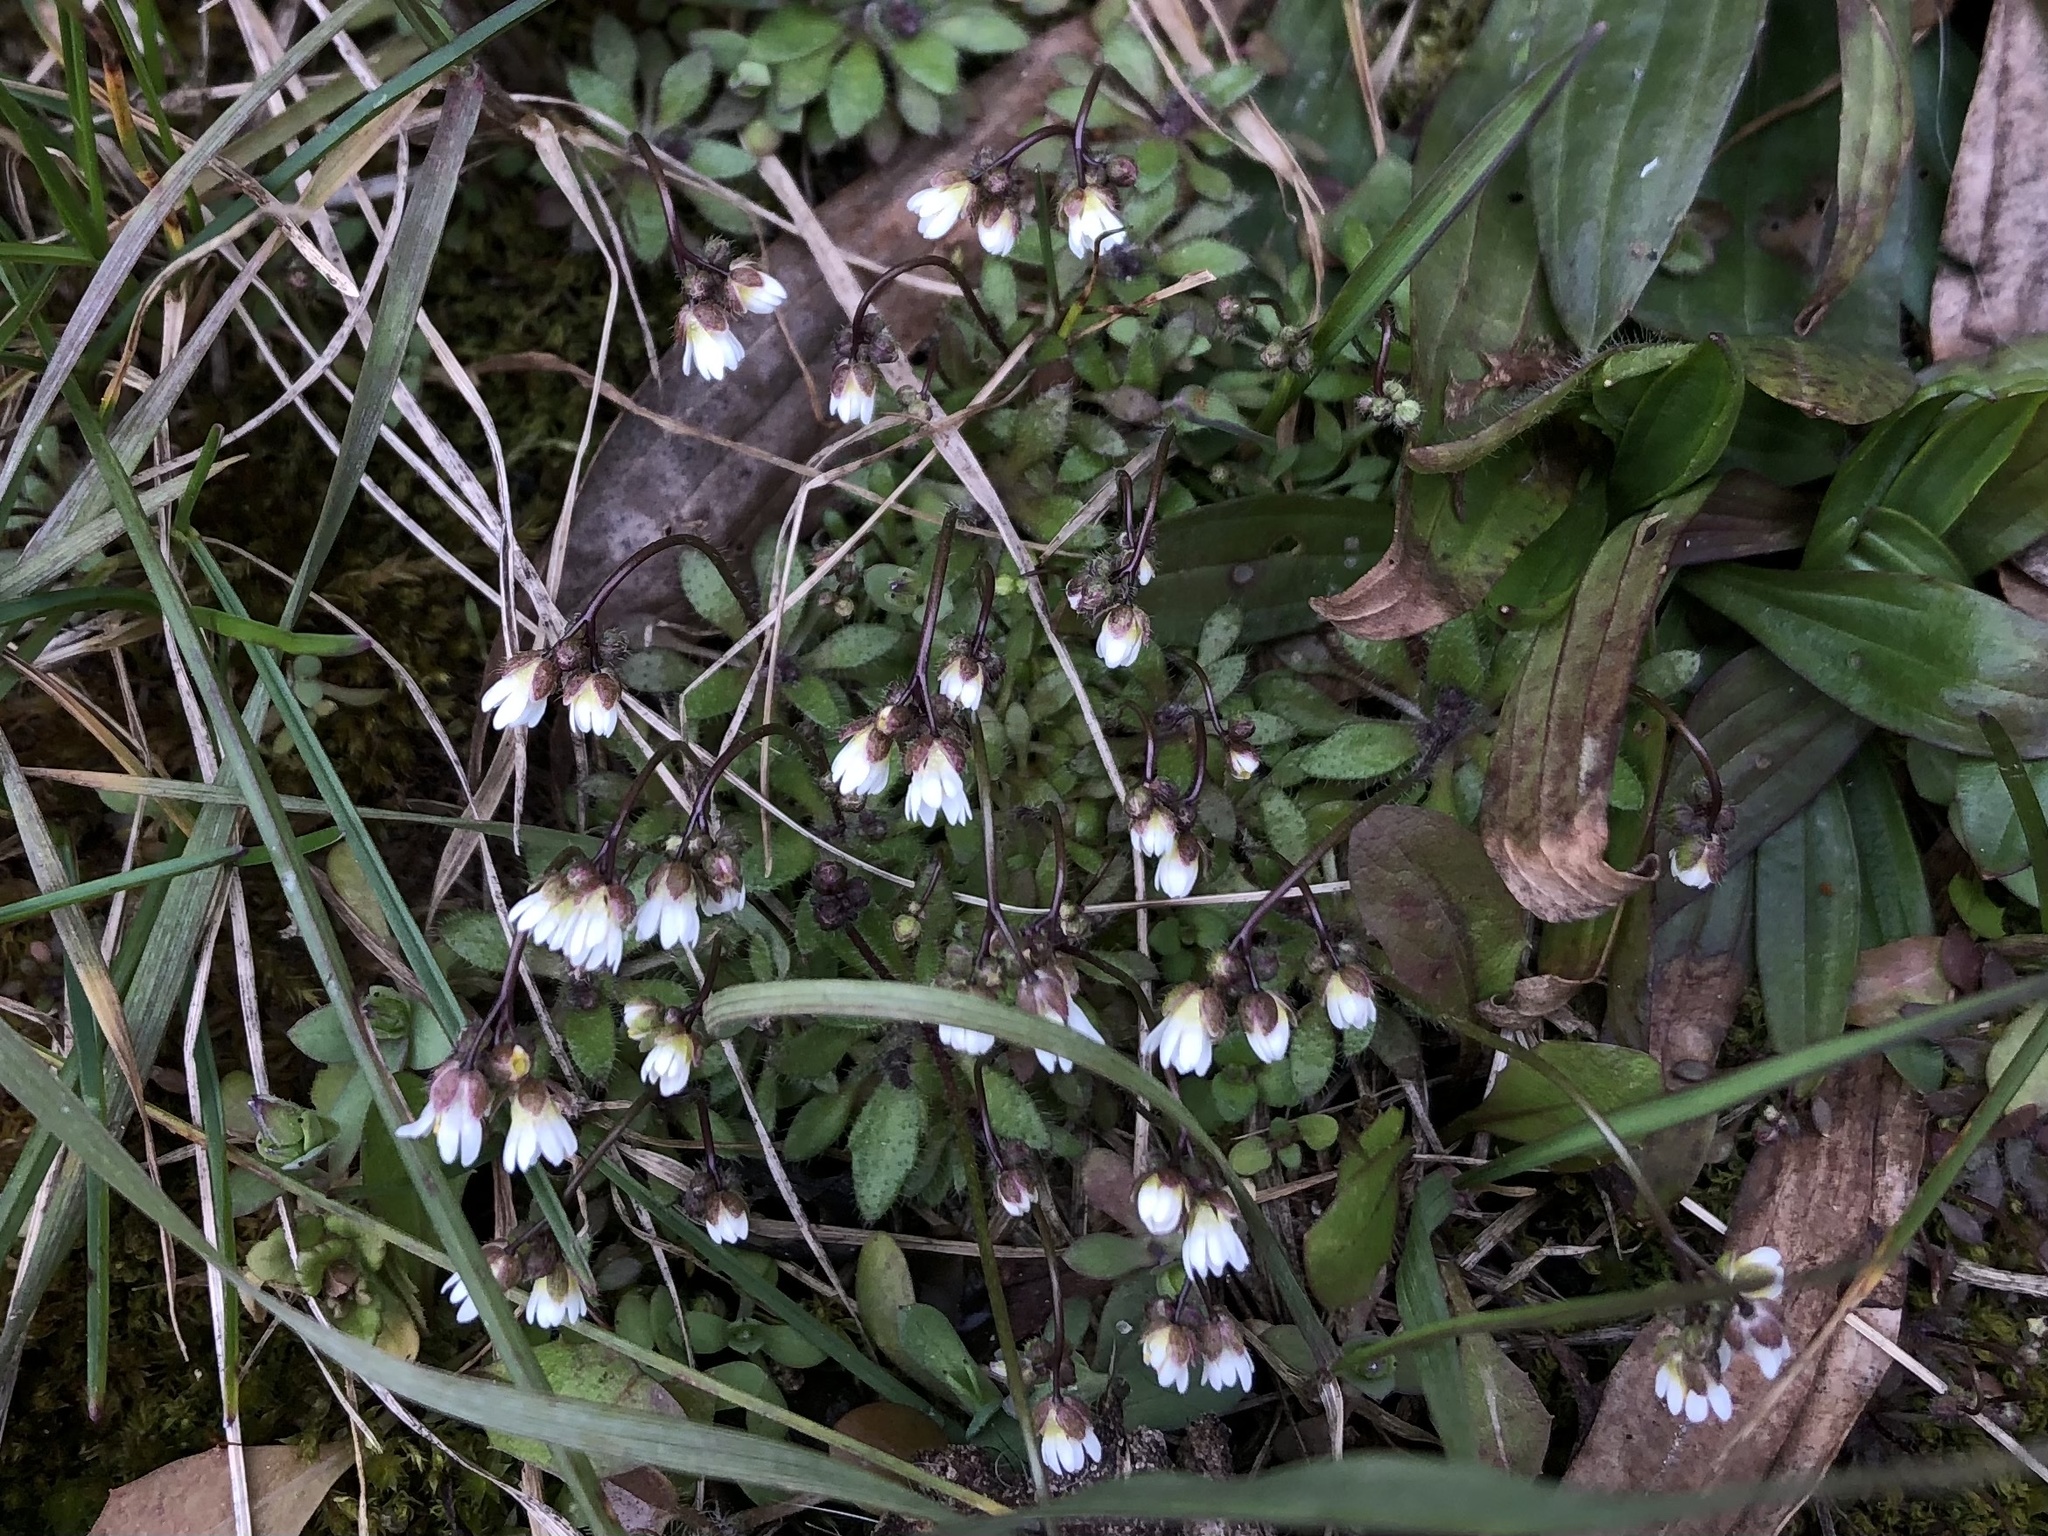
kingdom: Plantae
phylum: Tracheophyta
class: Magnoliopsida
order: Brassicales
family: Brassicaceae
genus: Draba
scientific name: Draba verna
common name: Spring draba
